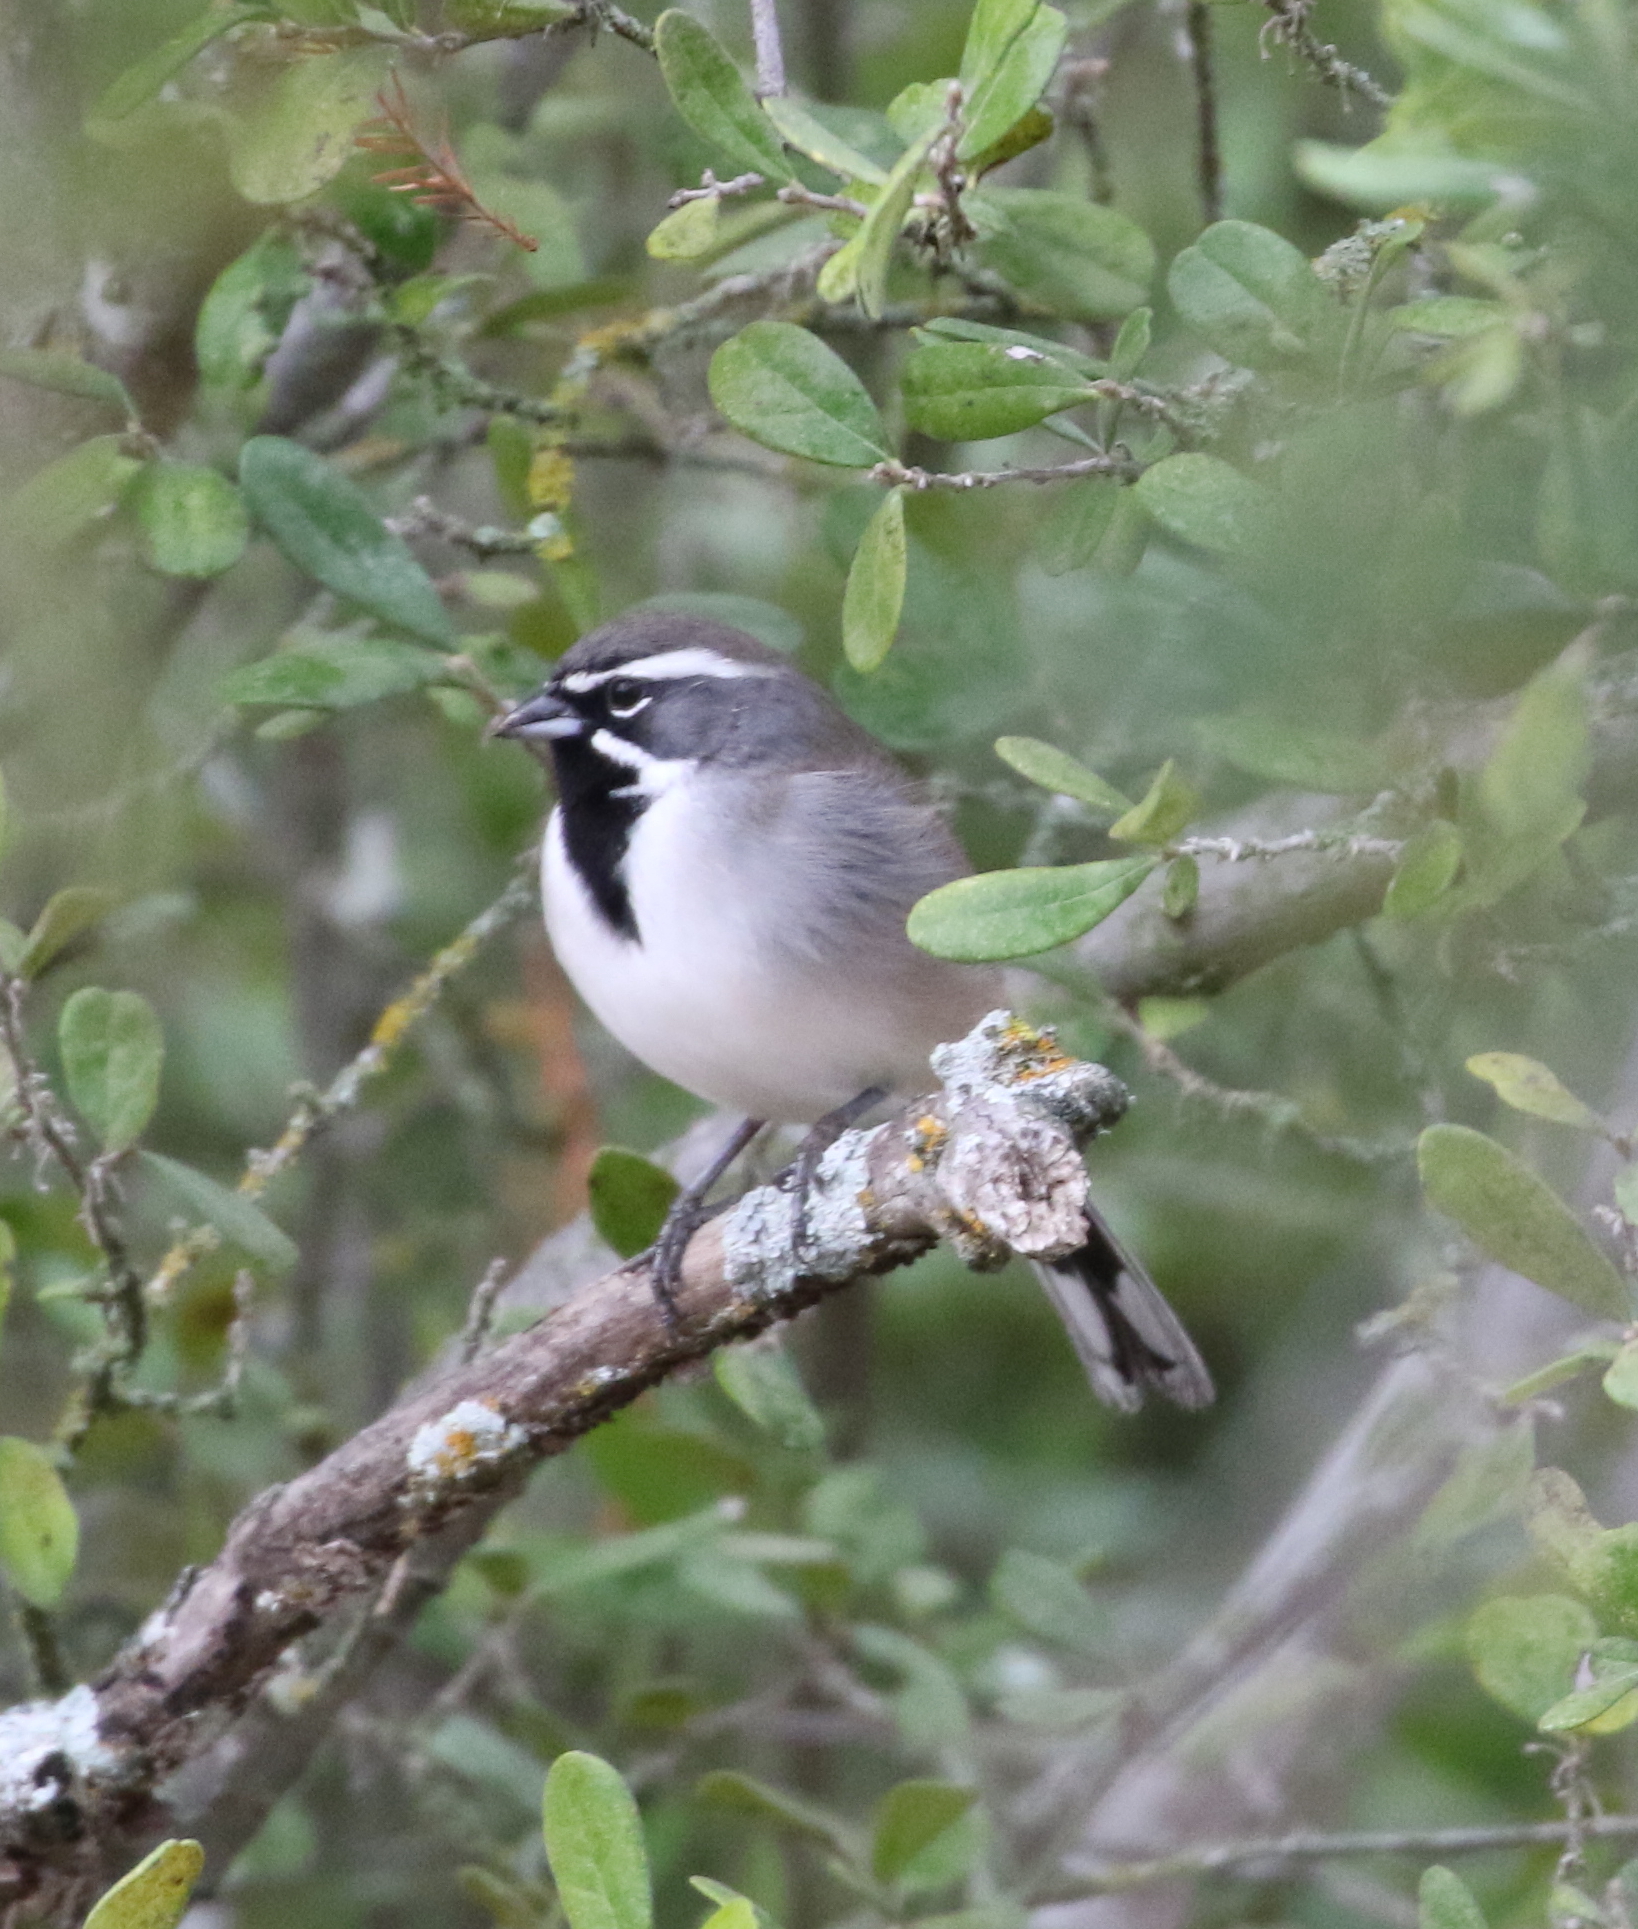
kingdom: Animalia
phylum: Chordata
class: Aves
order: Passeriformes
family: Passerellidae
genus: Amphispiza
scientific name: Amphispiza bilineata
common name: Black-throated sparrow
